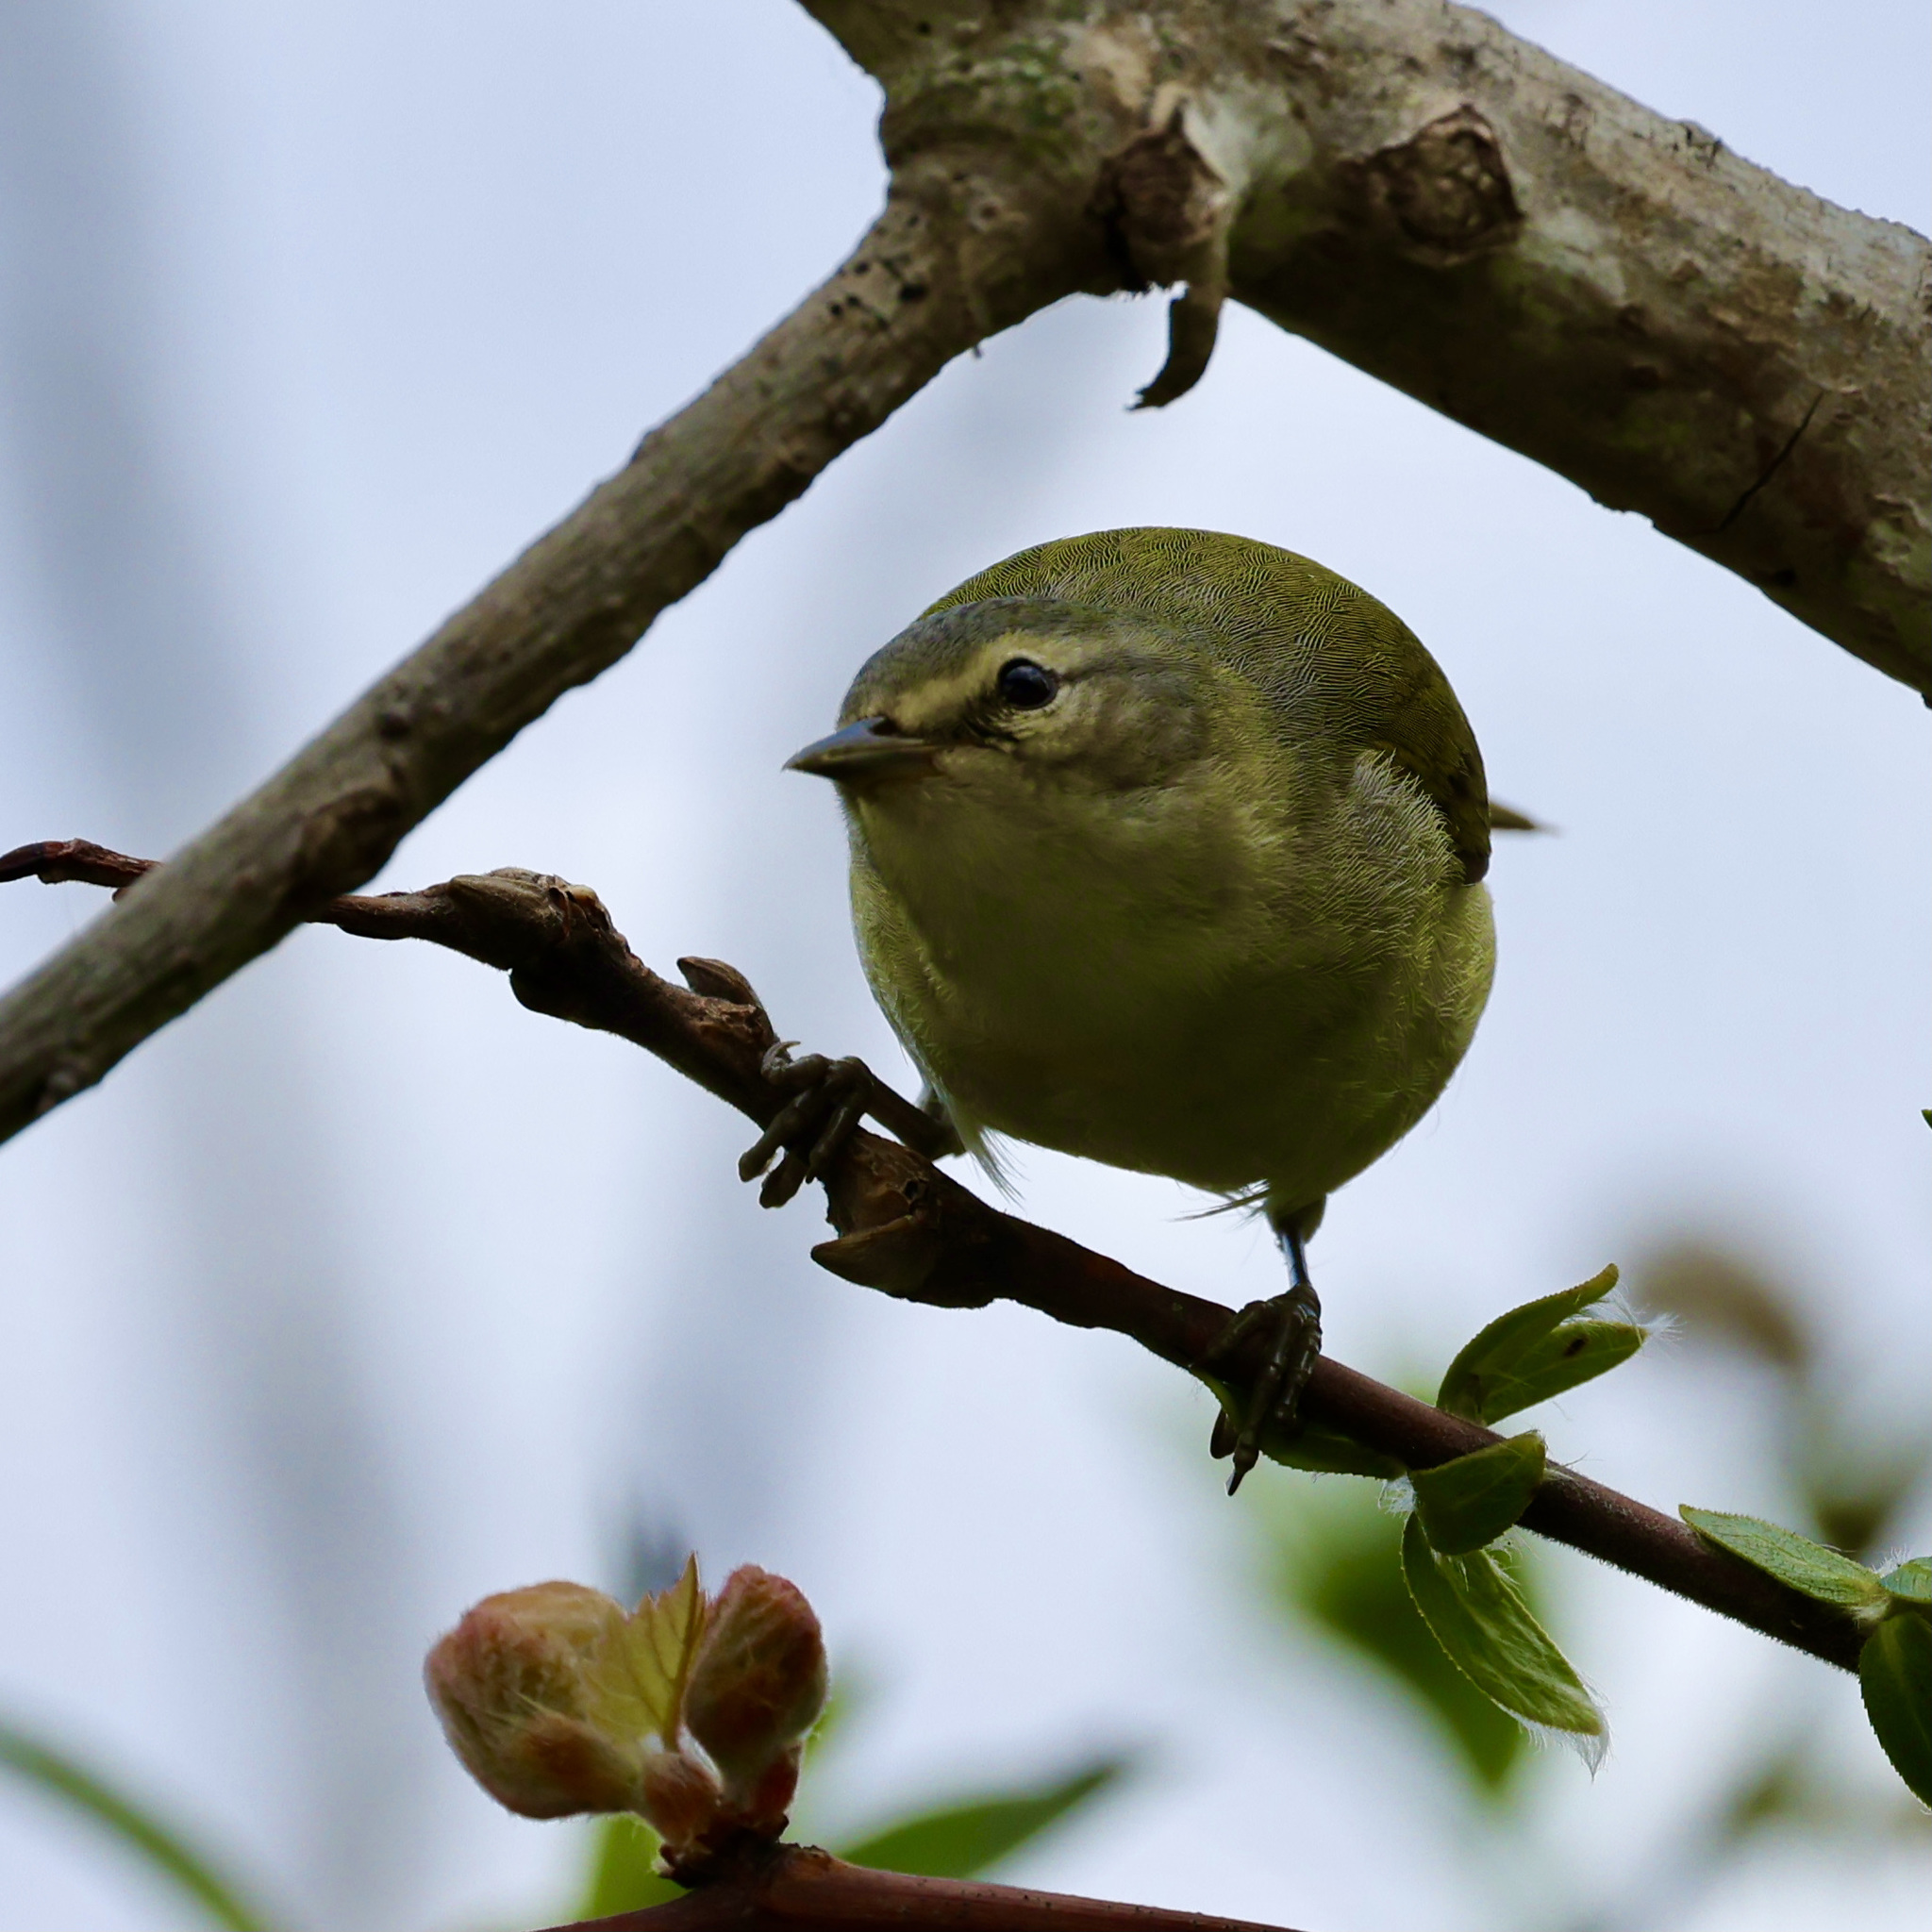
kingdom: Animalia
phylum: Chordata
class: Aves
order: Passeriformes
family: Parulidae
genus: Leiothlypis
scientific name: Leiothlypis peregrina
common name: Tennessee warbler
